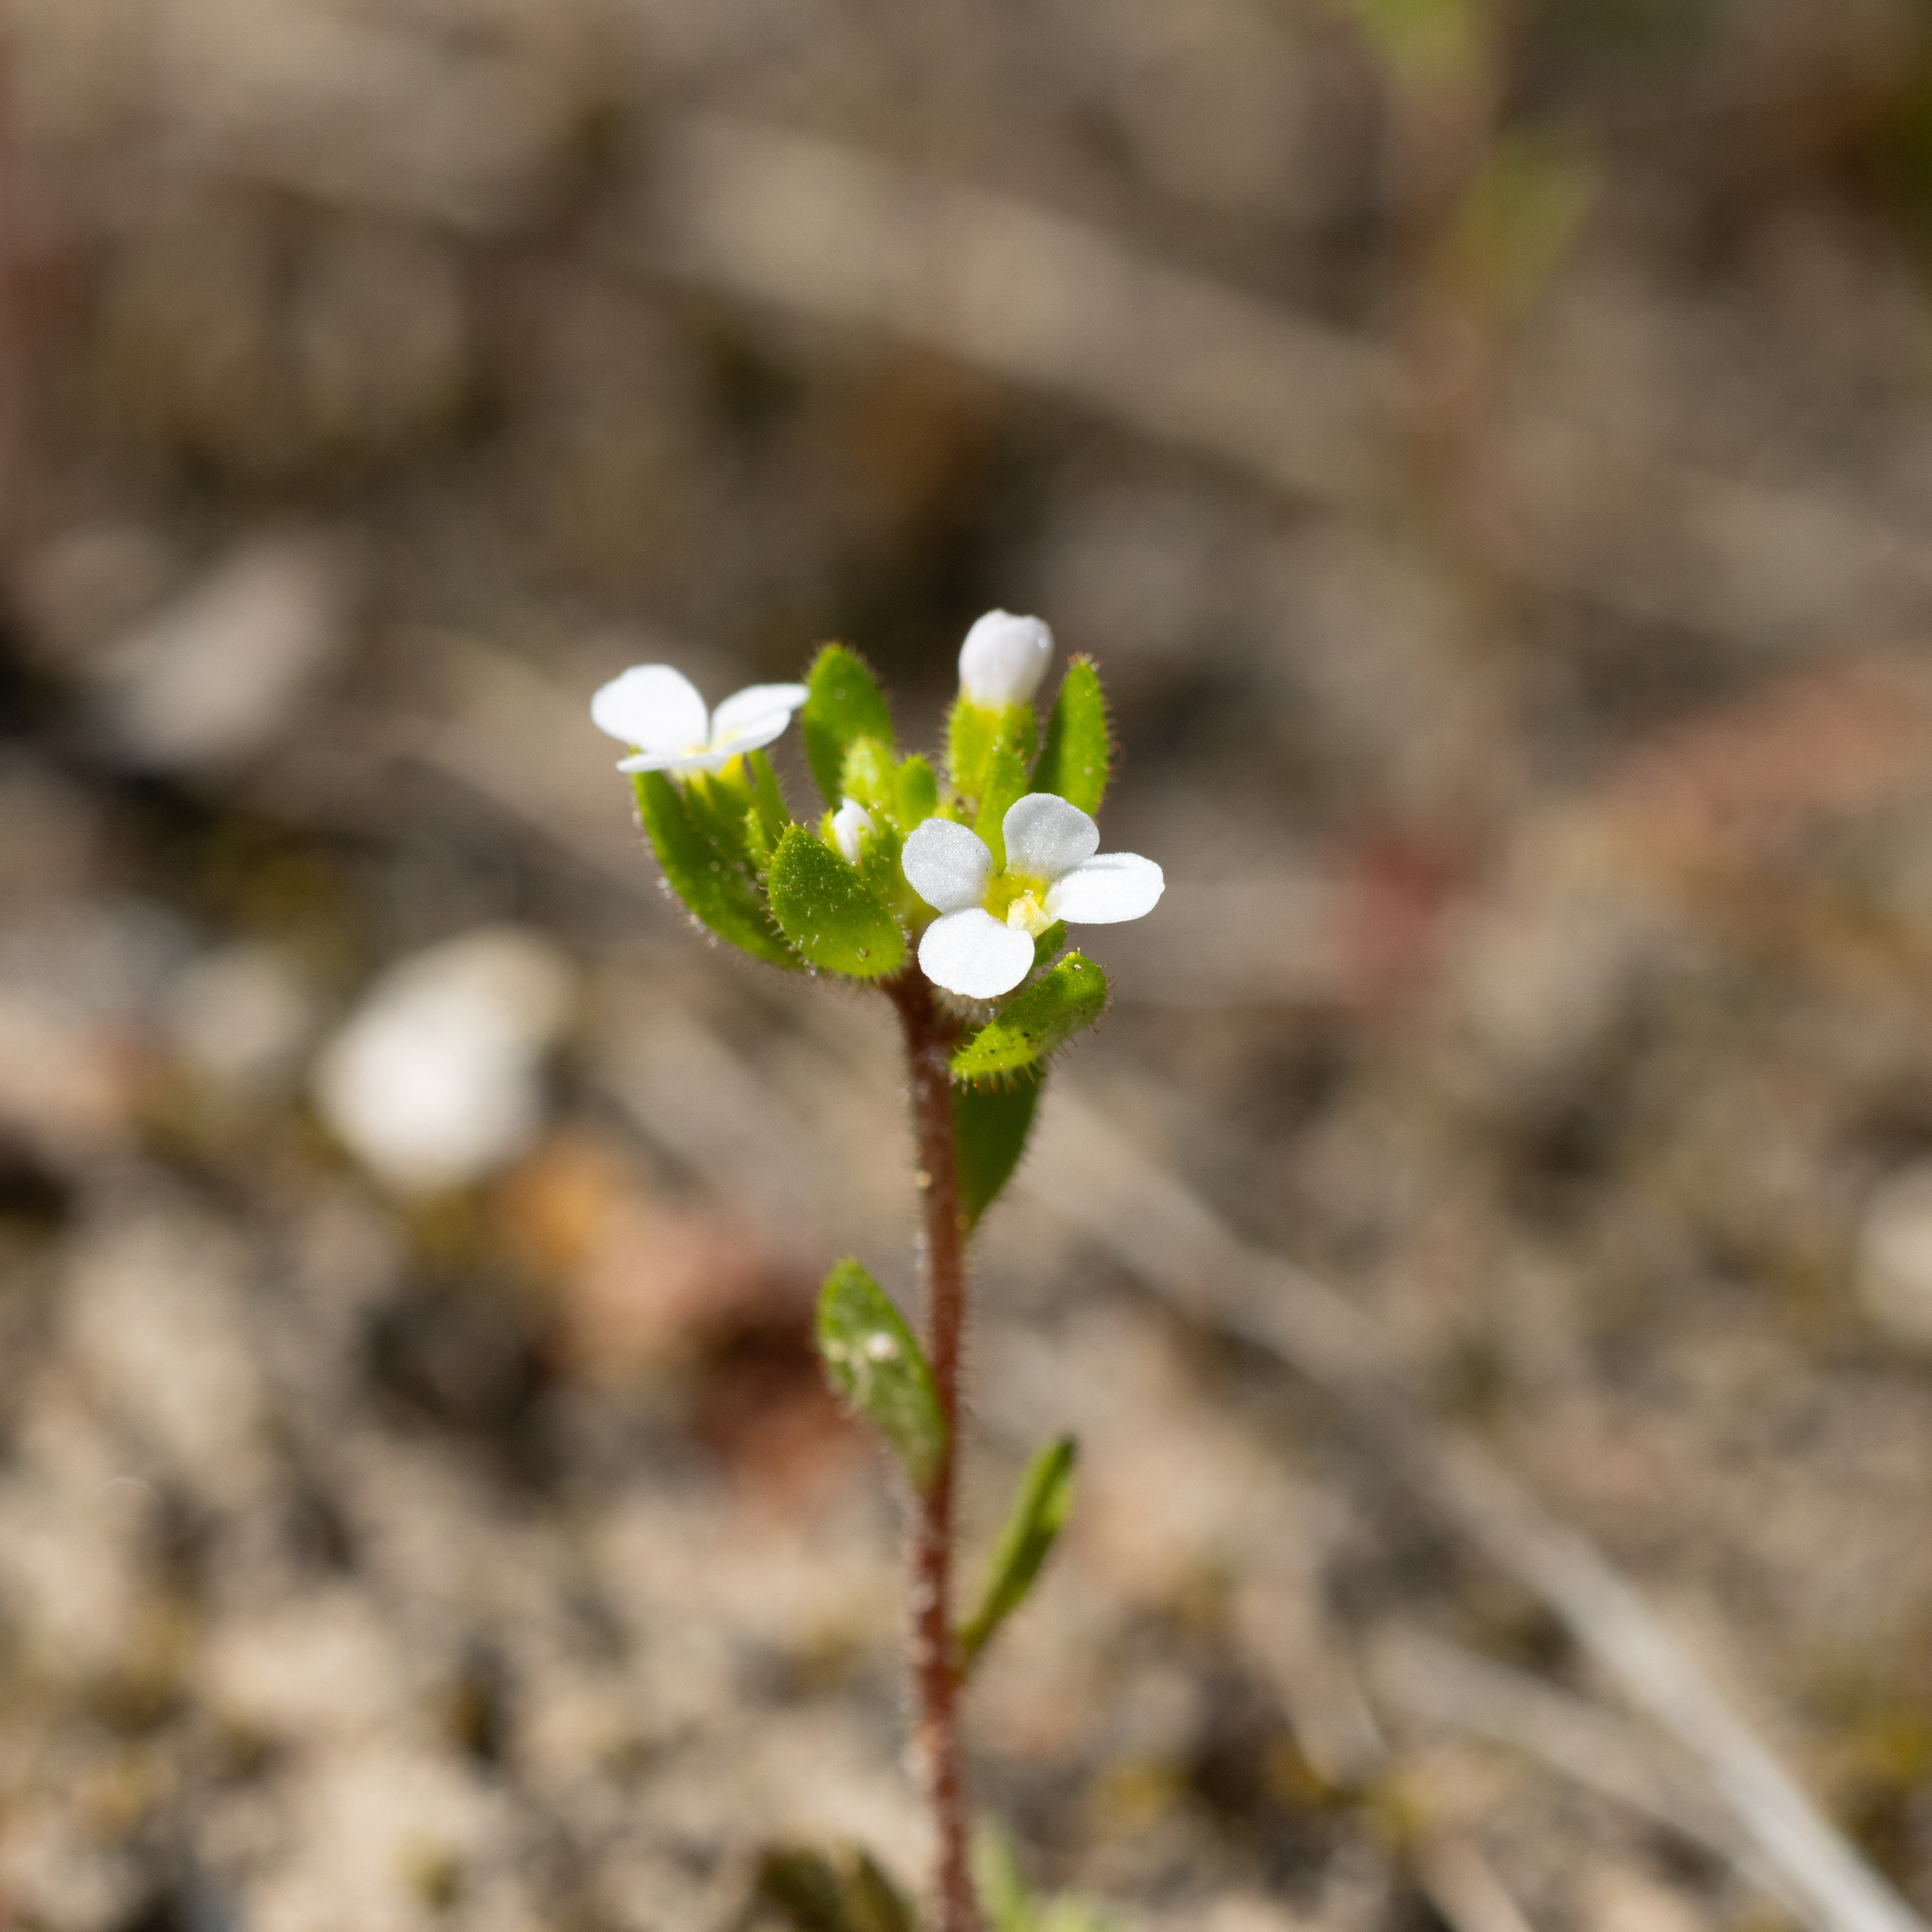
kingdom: Plantae
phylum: Tracheophyta
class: Magnoliopsida
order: Asterales
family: Stylidiaceae
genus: Levenhookia
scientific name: Levenhookia dubia
